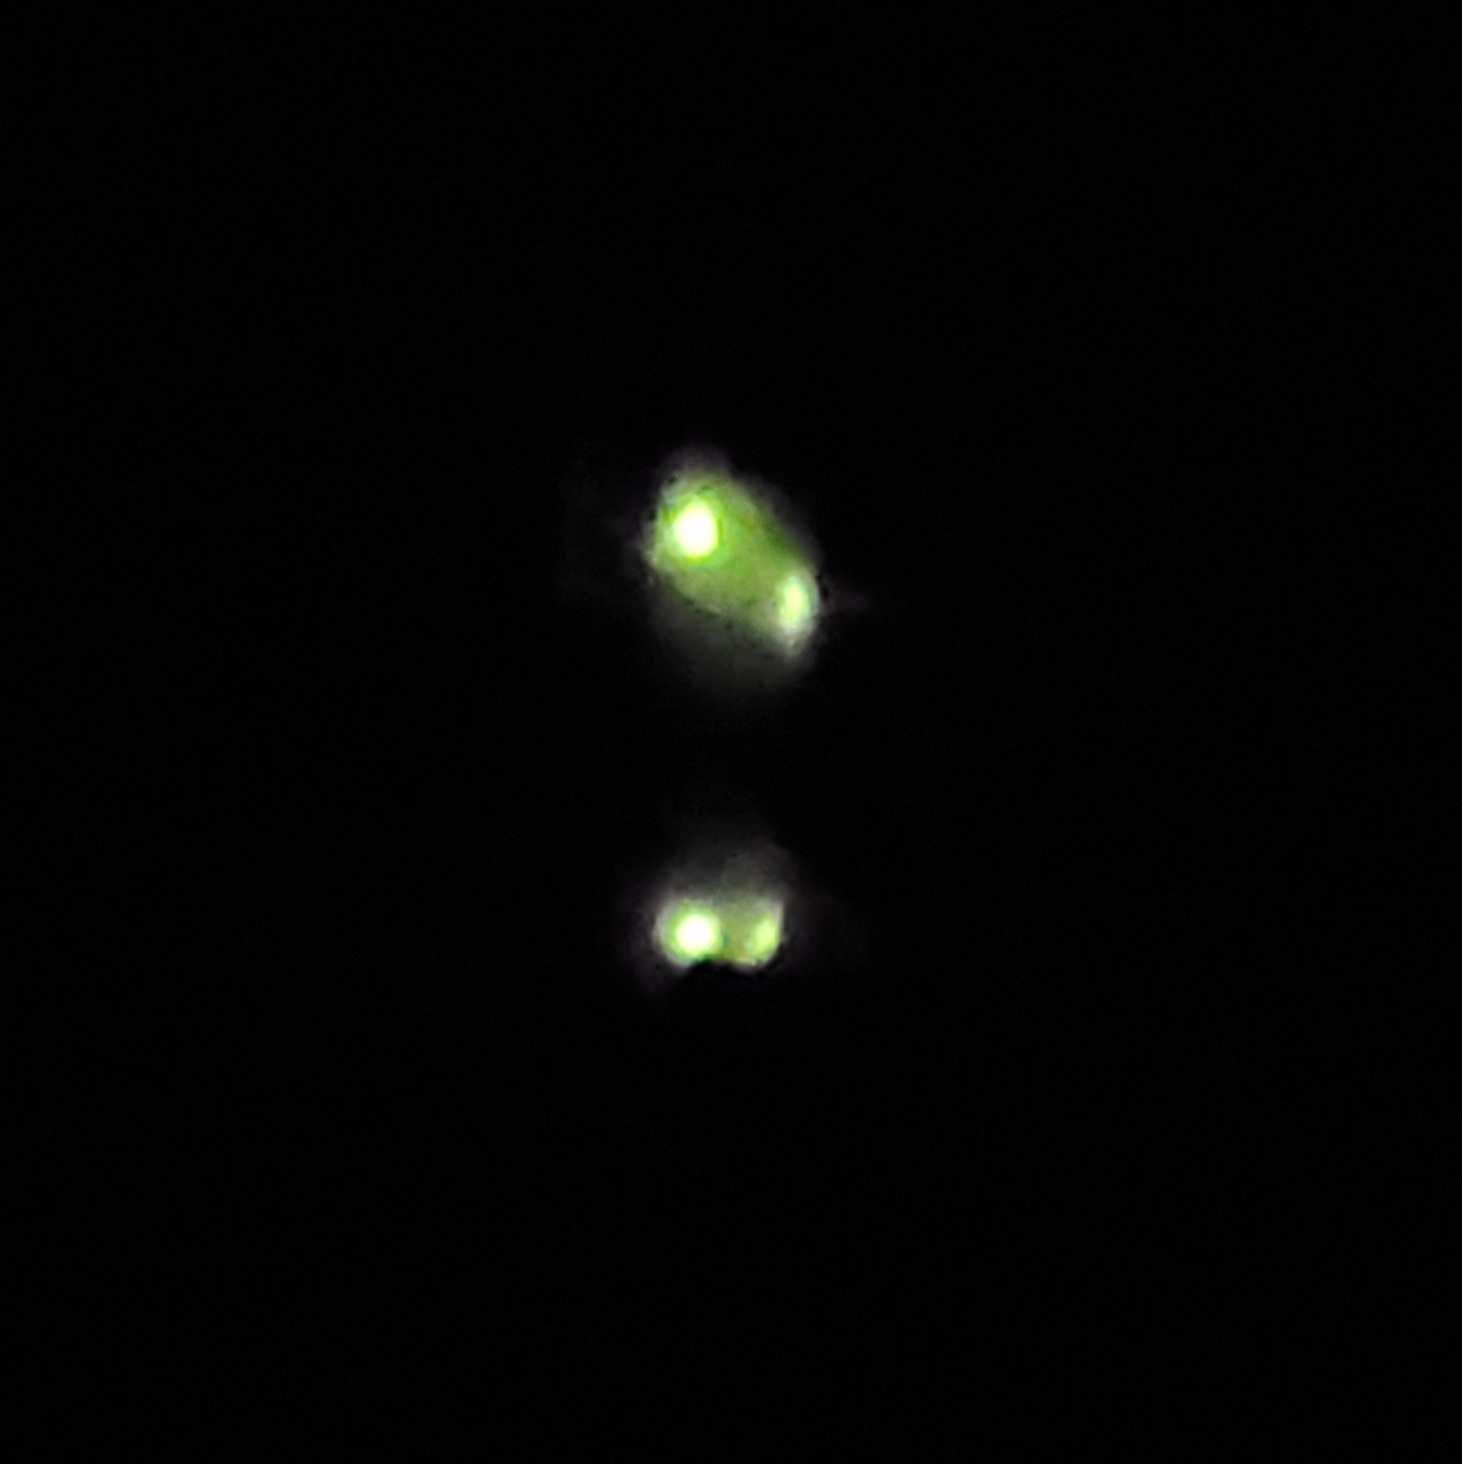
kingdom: Animalia
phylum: Arthropoda
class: Insecta
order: Coleoptera
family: Lampyridae
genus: Phausis
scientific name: Phausis reticulata
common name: Blue ghost firefly
